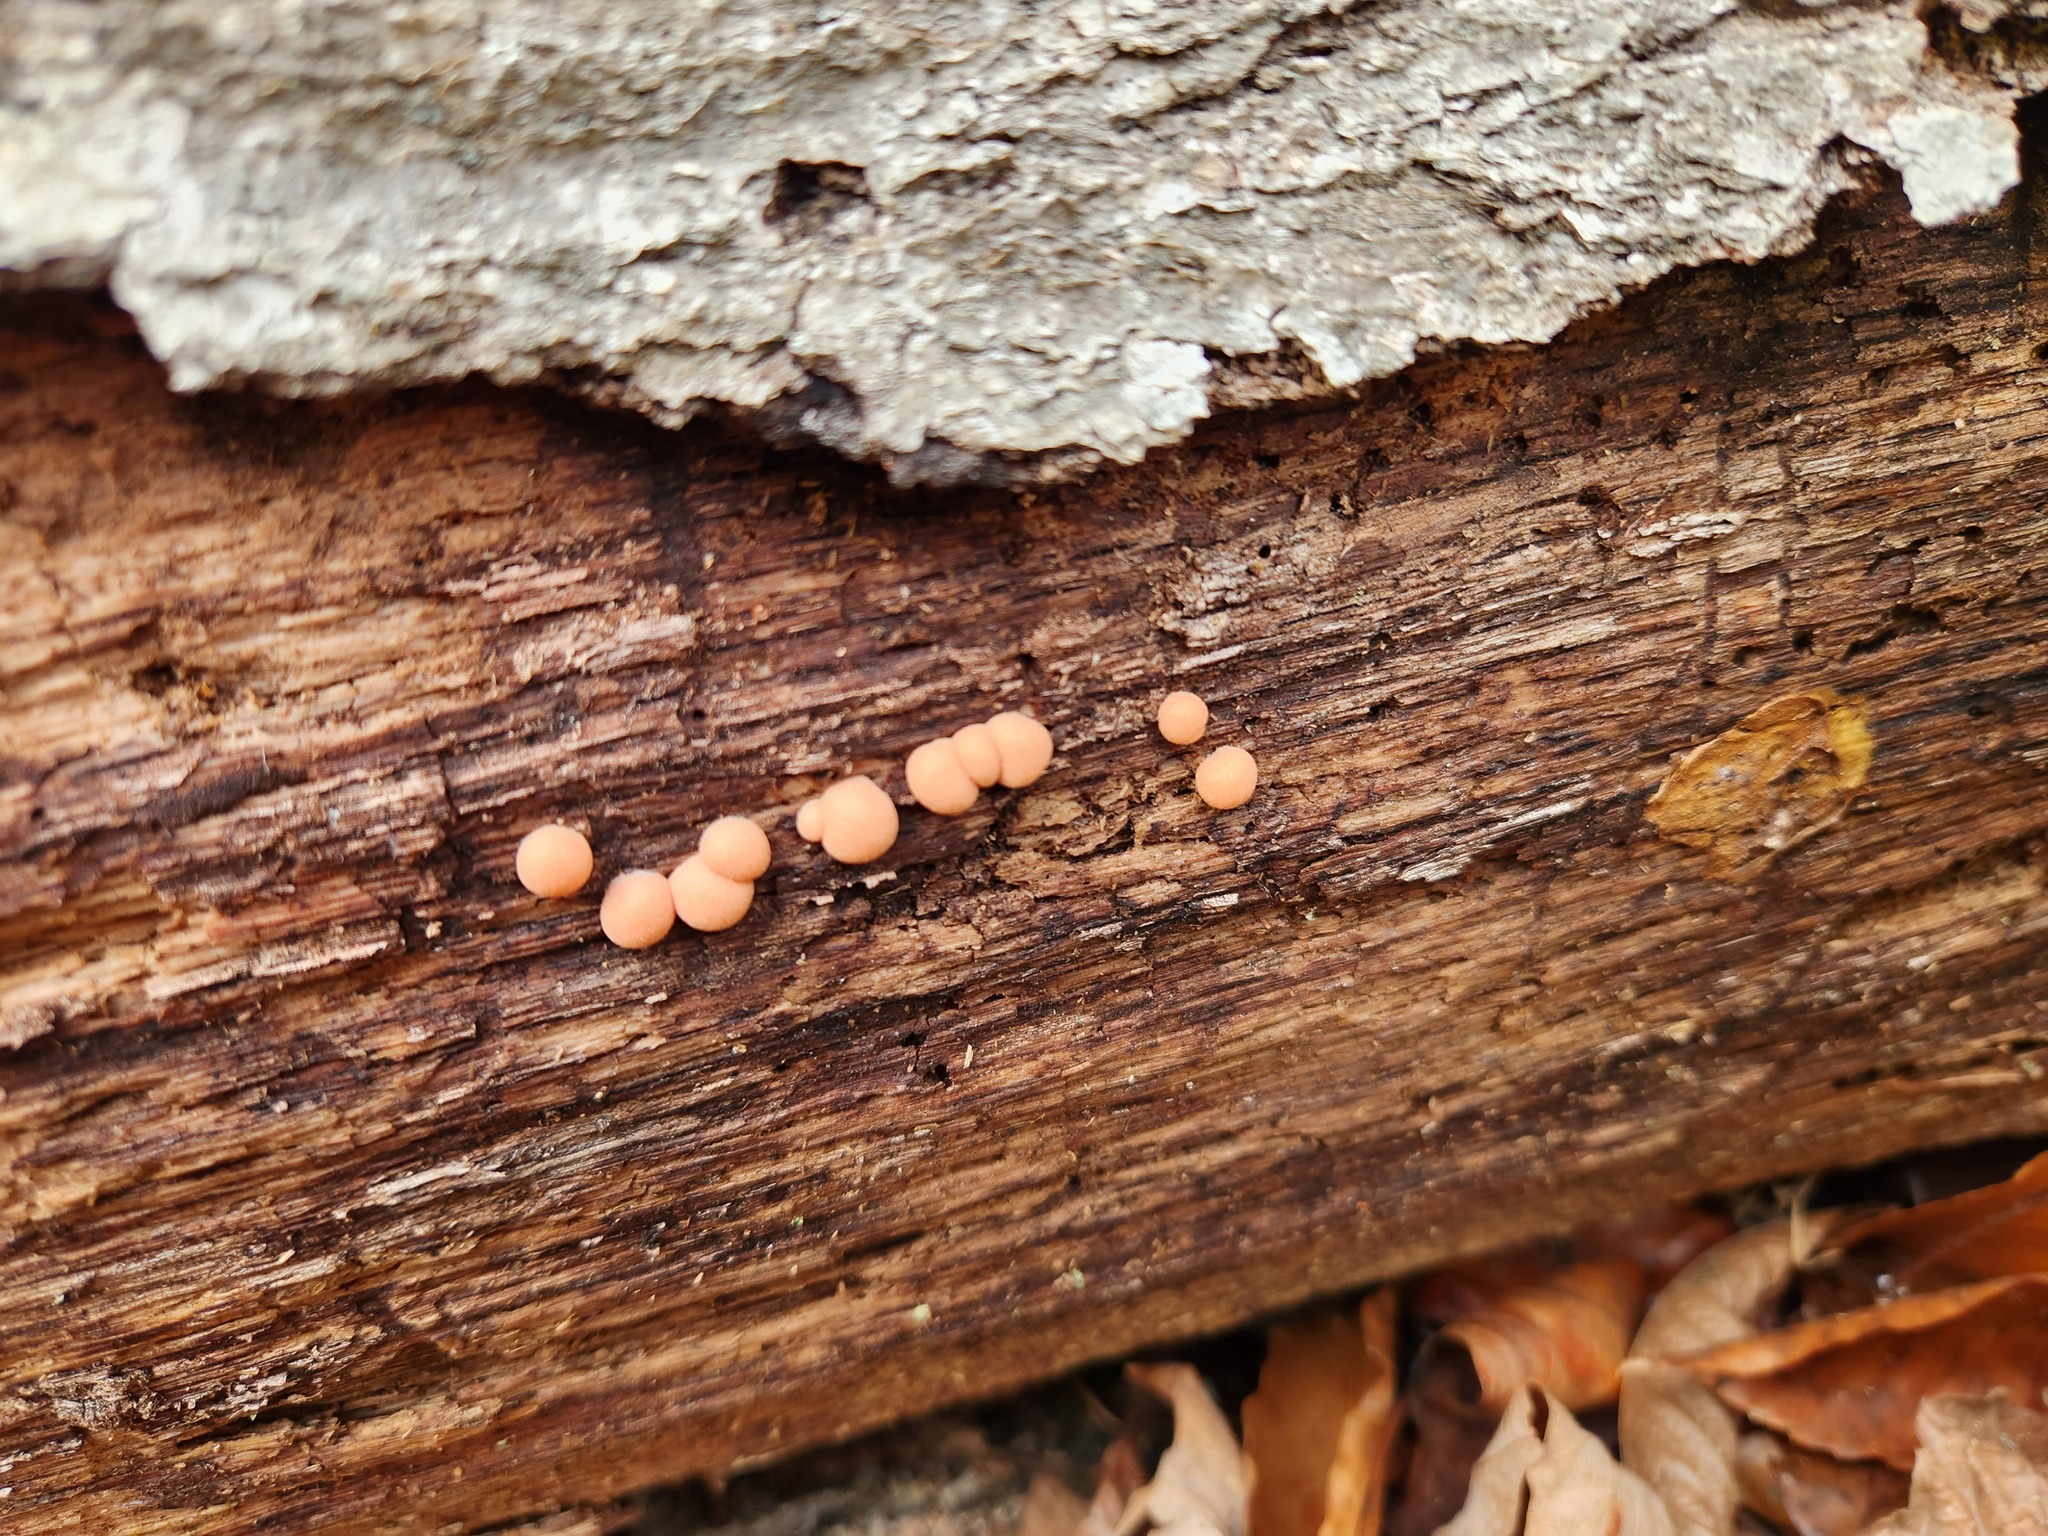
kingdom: Protozoa
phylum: Mycetozoa
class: Myxomycetes
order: Cribrariales
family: Tubiferaceae
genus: Lycogala
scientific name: Lycogala epidendrum
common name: Wolf's milk
